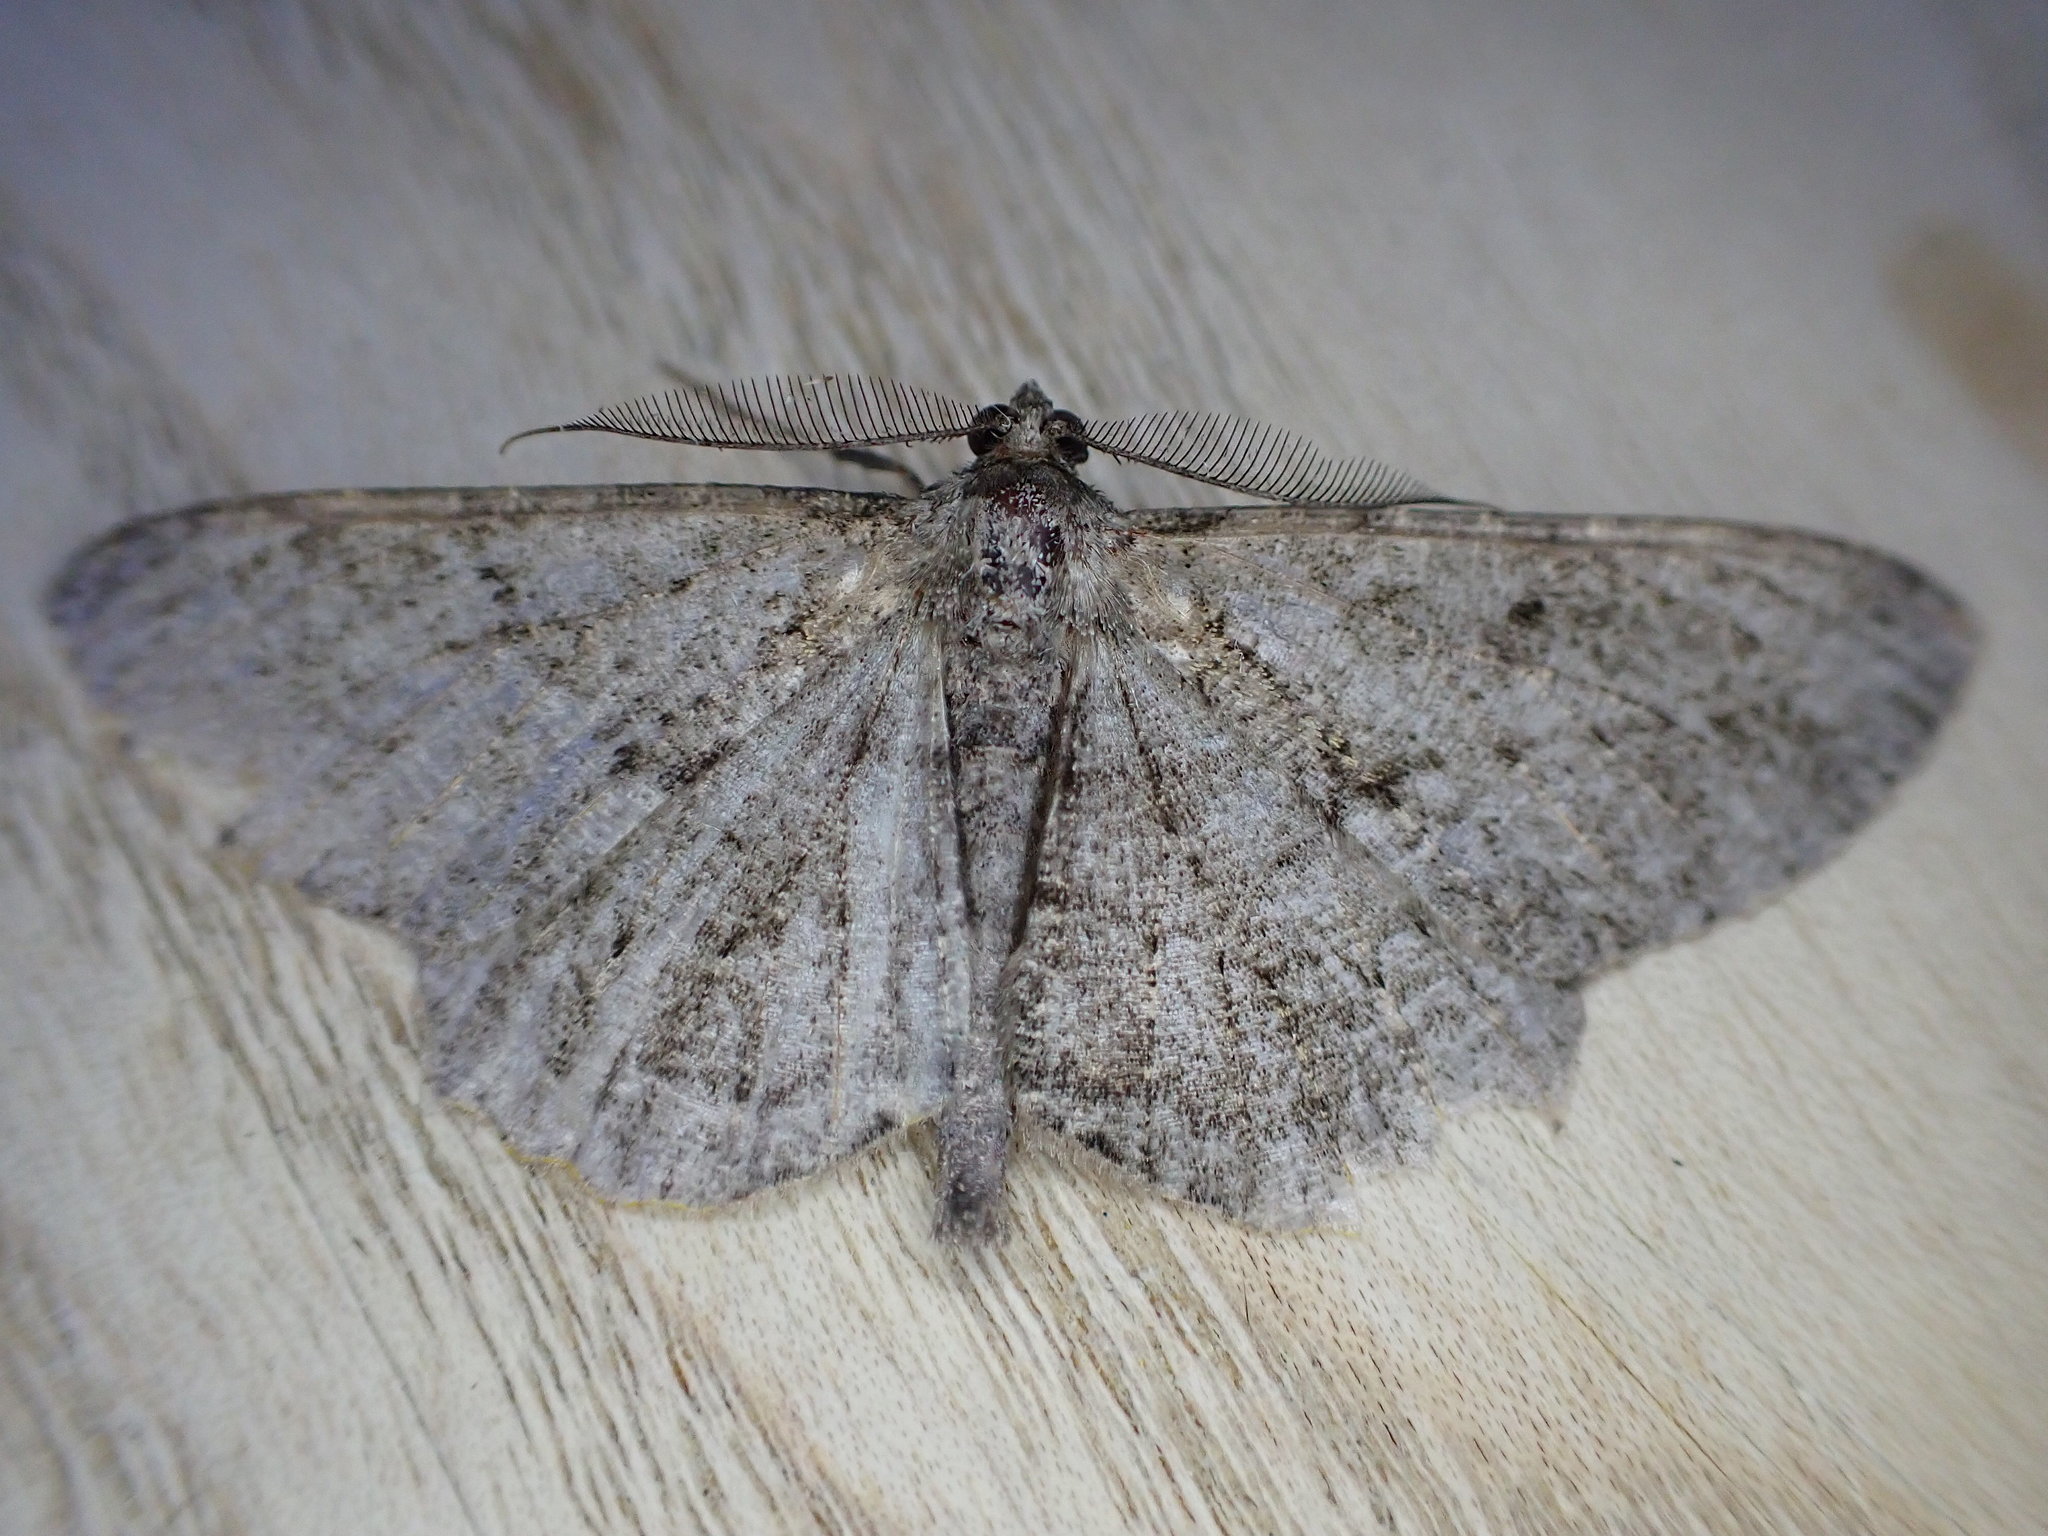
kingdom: Animalia
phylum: Arthropoda
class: Insecta
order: Lepidoptera
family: Geometridae
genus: Peribatodes
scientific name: Peribatodes rhomboidaria
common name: Willow beauty
